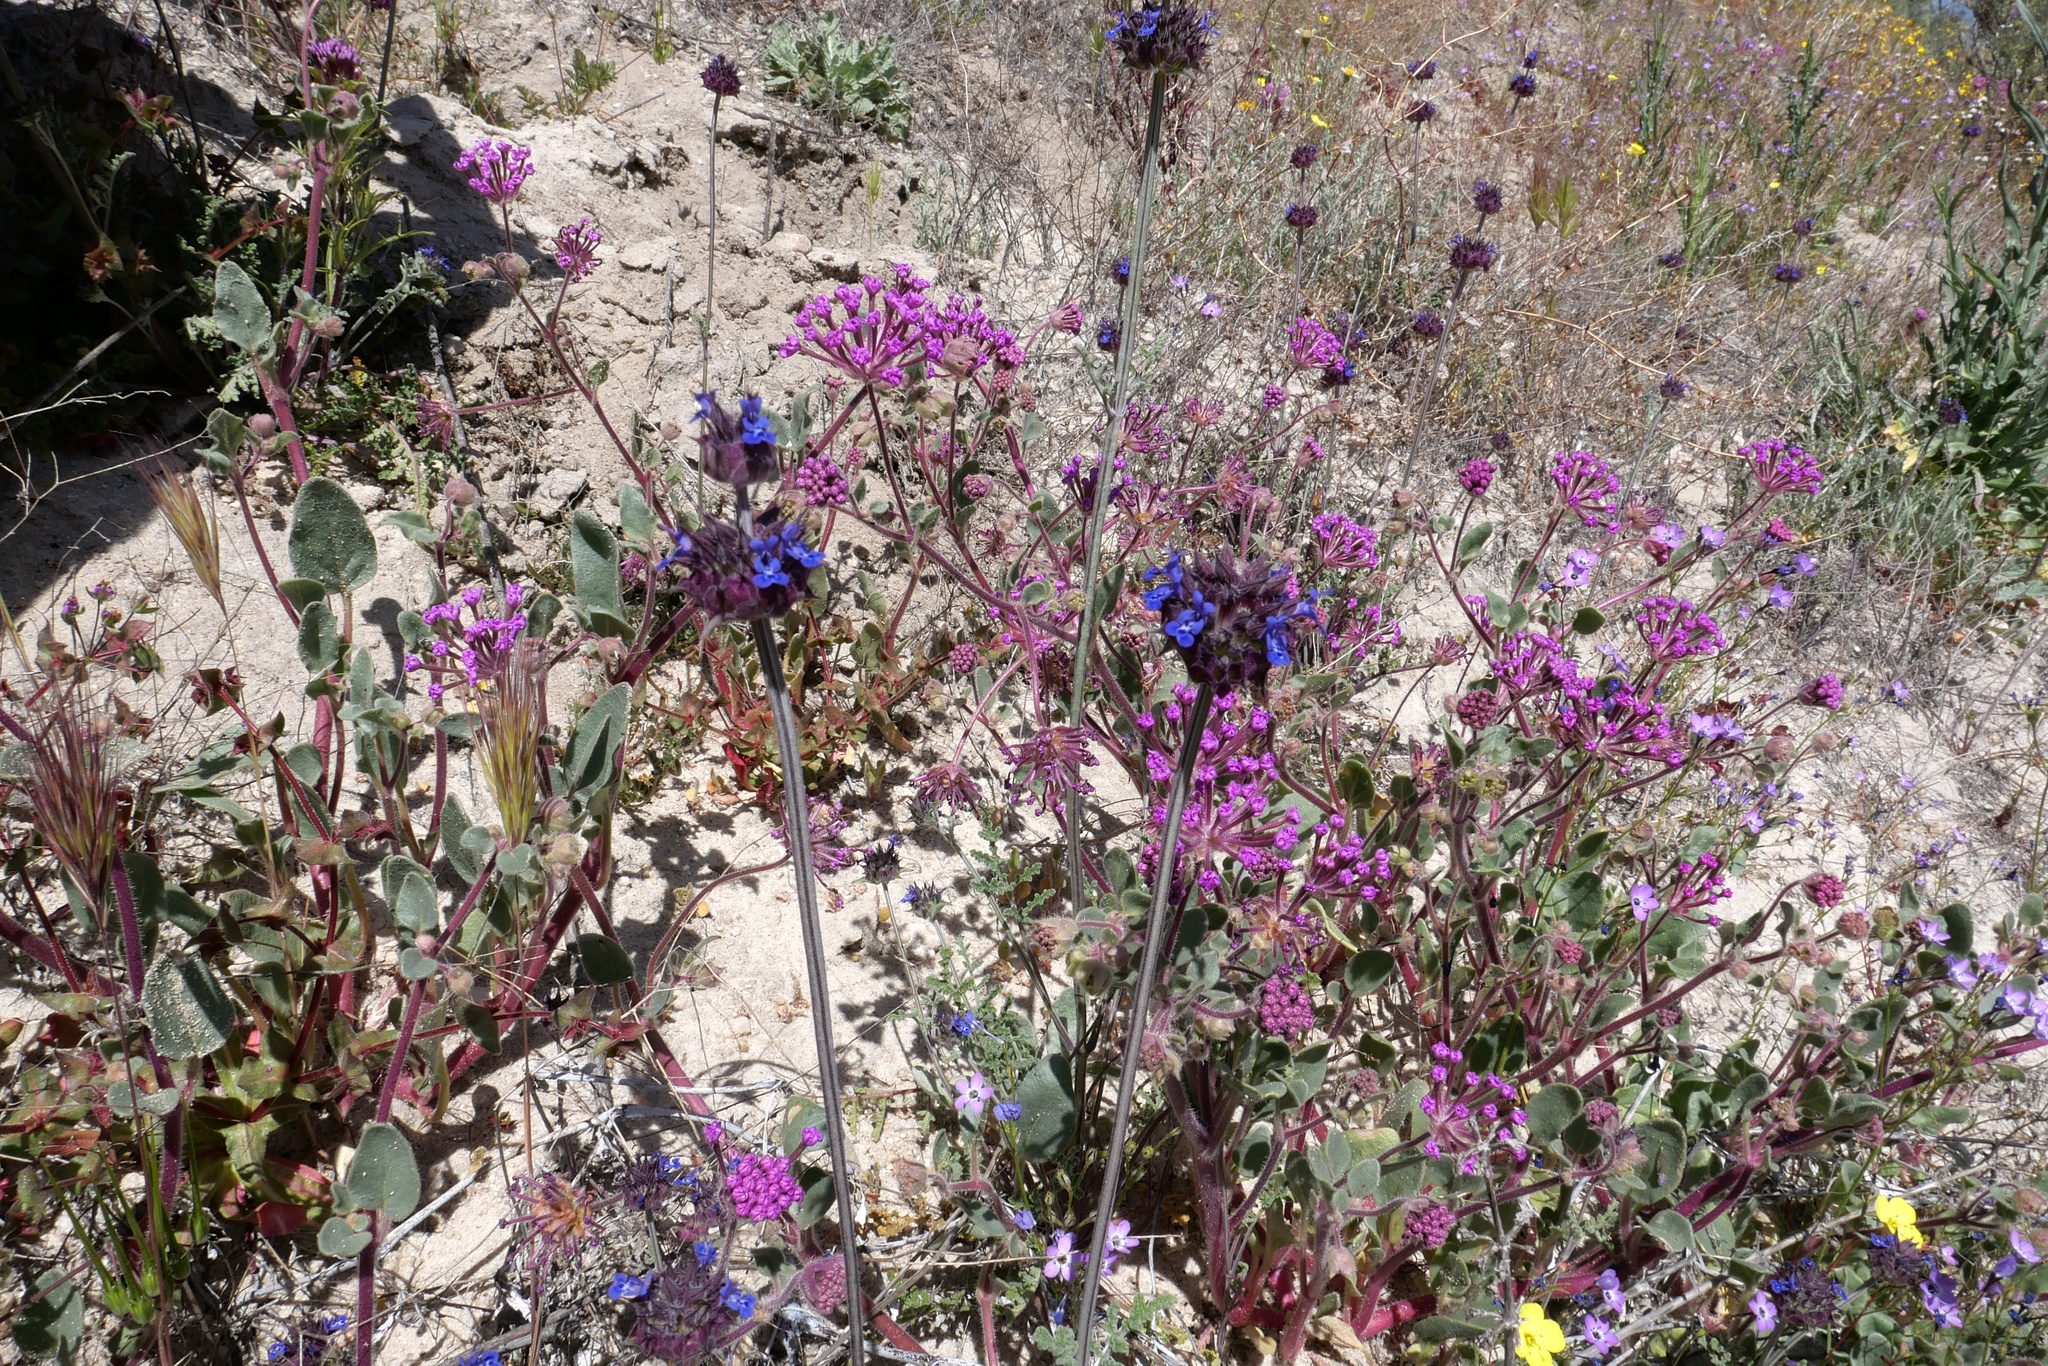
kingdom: Plantae
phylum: Tracheophyta
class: Magnoliopsida
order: Lamiales
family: Lamiaceae
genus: Salvia
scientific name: Salvia columbariae
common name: Chia
